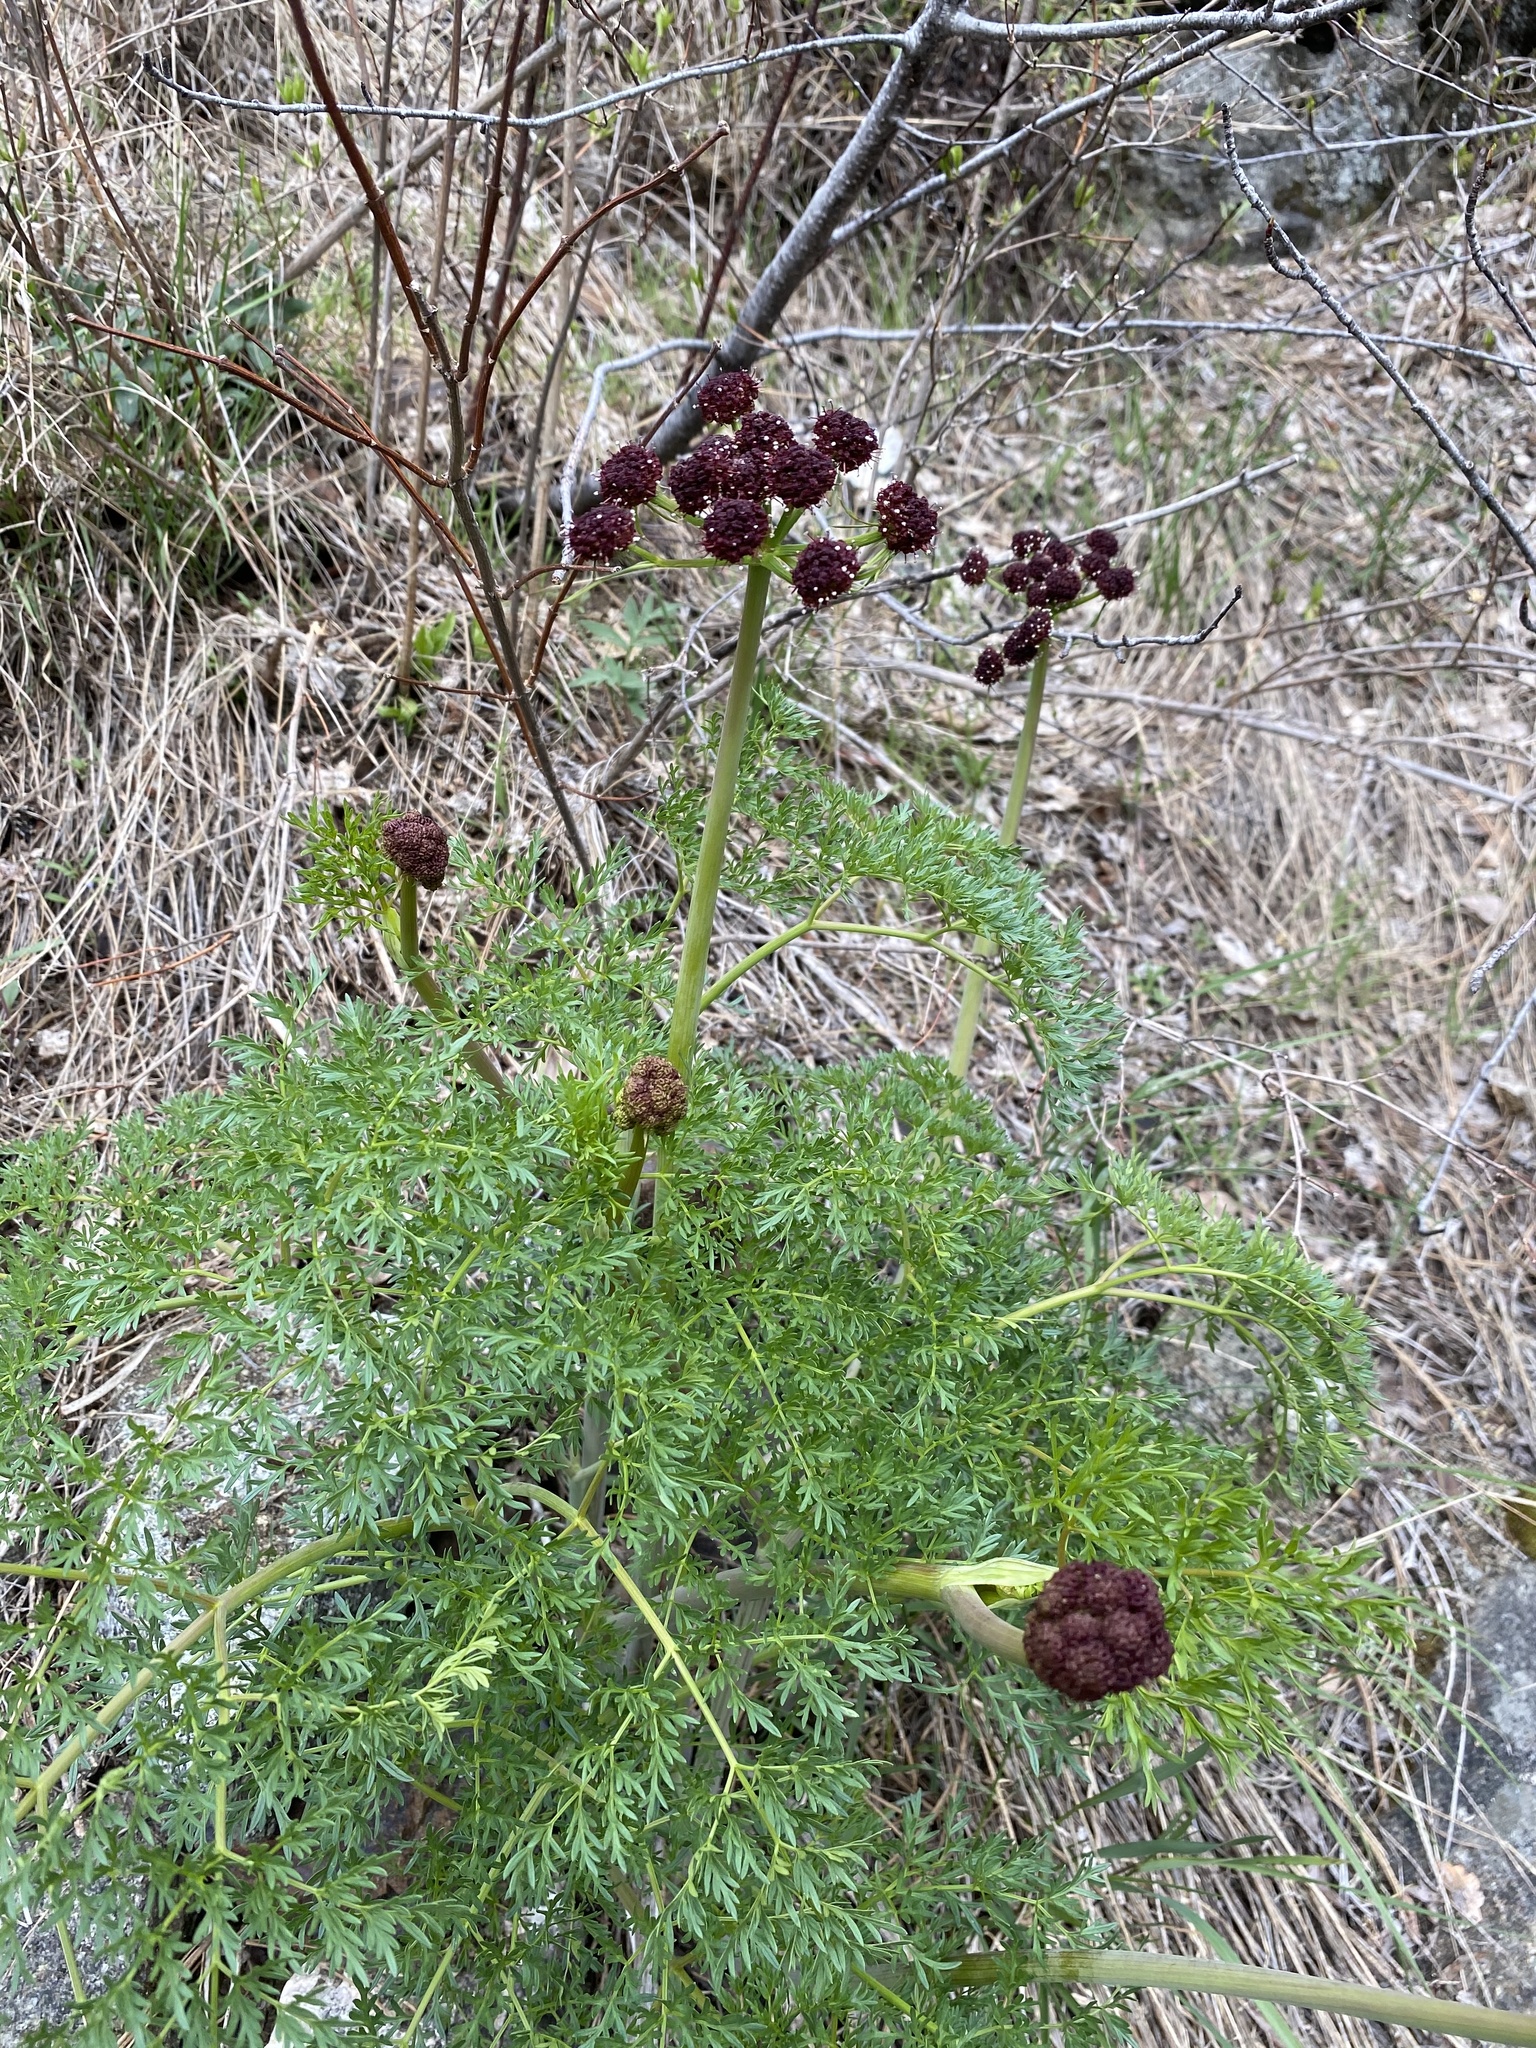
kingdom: Plantae
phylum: Tracheophyta
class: Magnoliopsida
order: Apiales
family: Apiaceae
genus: Lomatium
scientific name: Lomatium dissectum
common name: Lomatium
